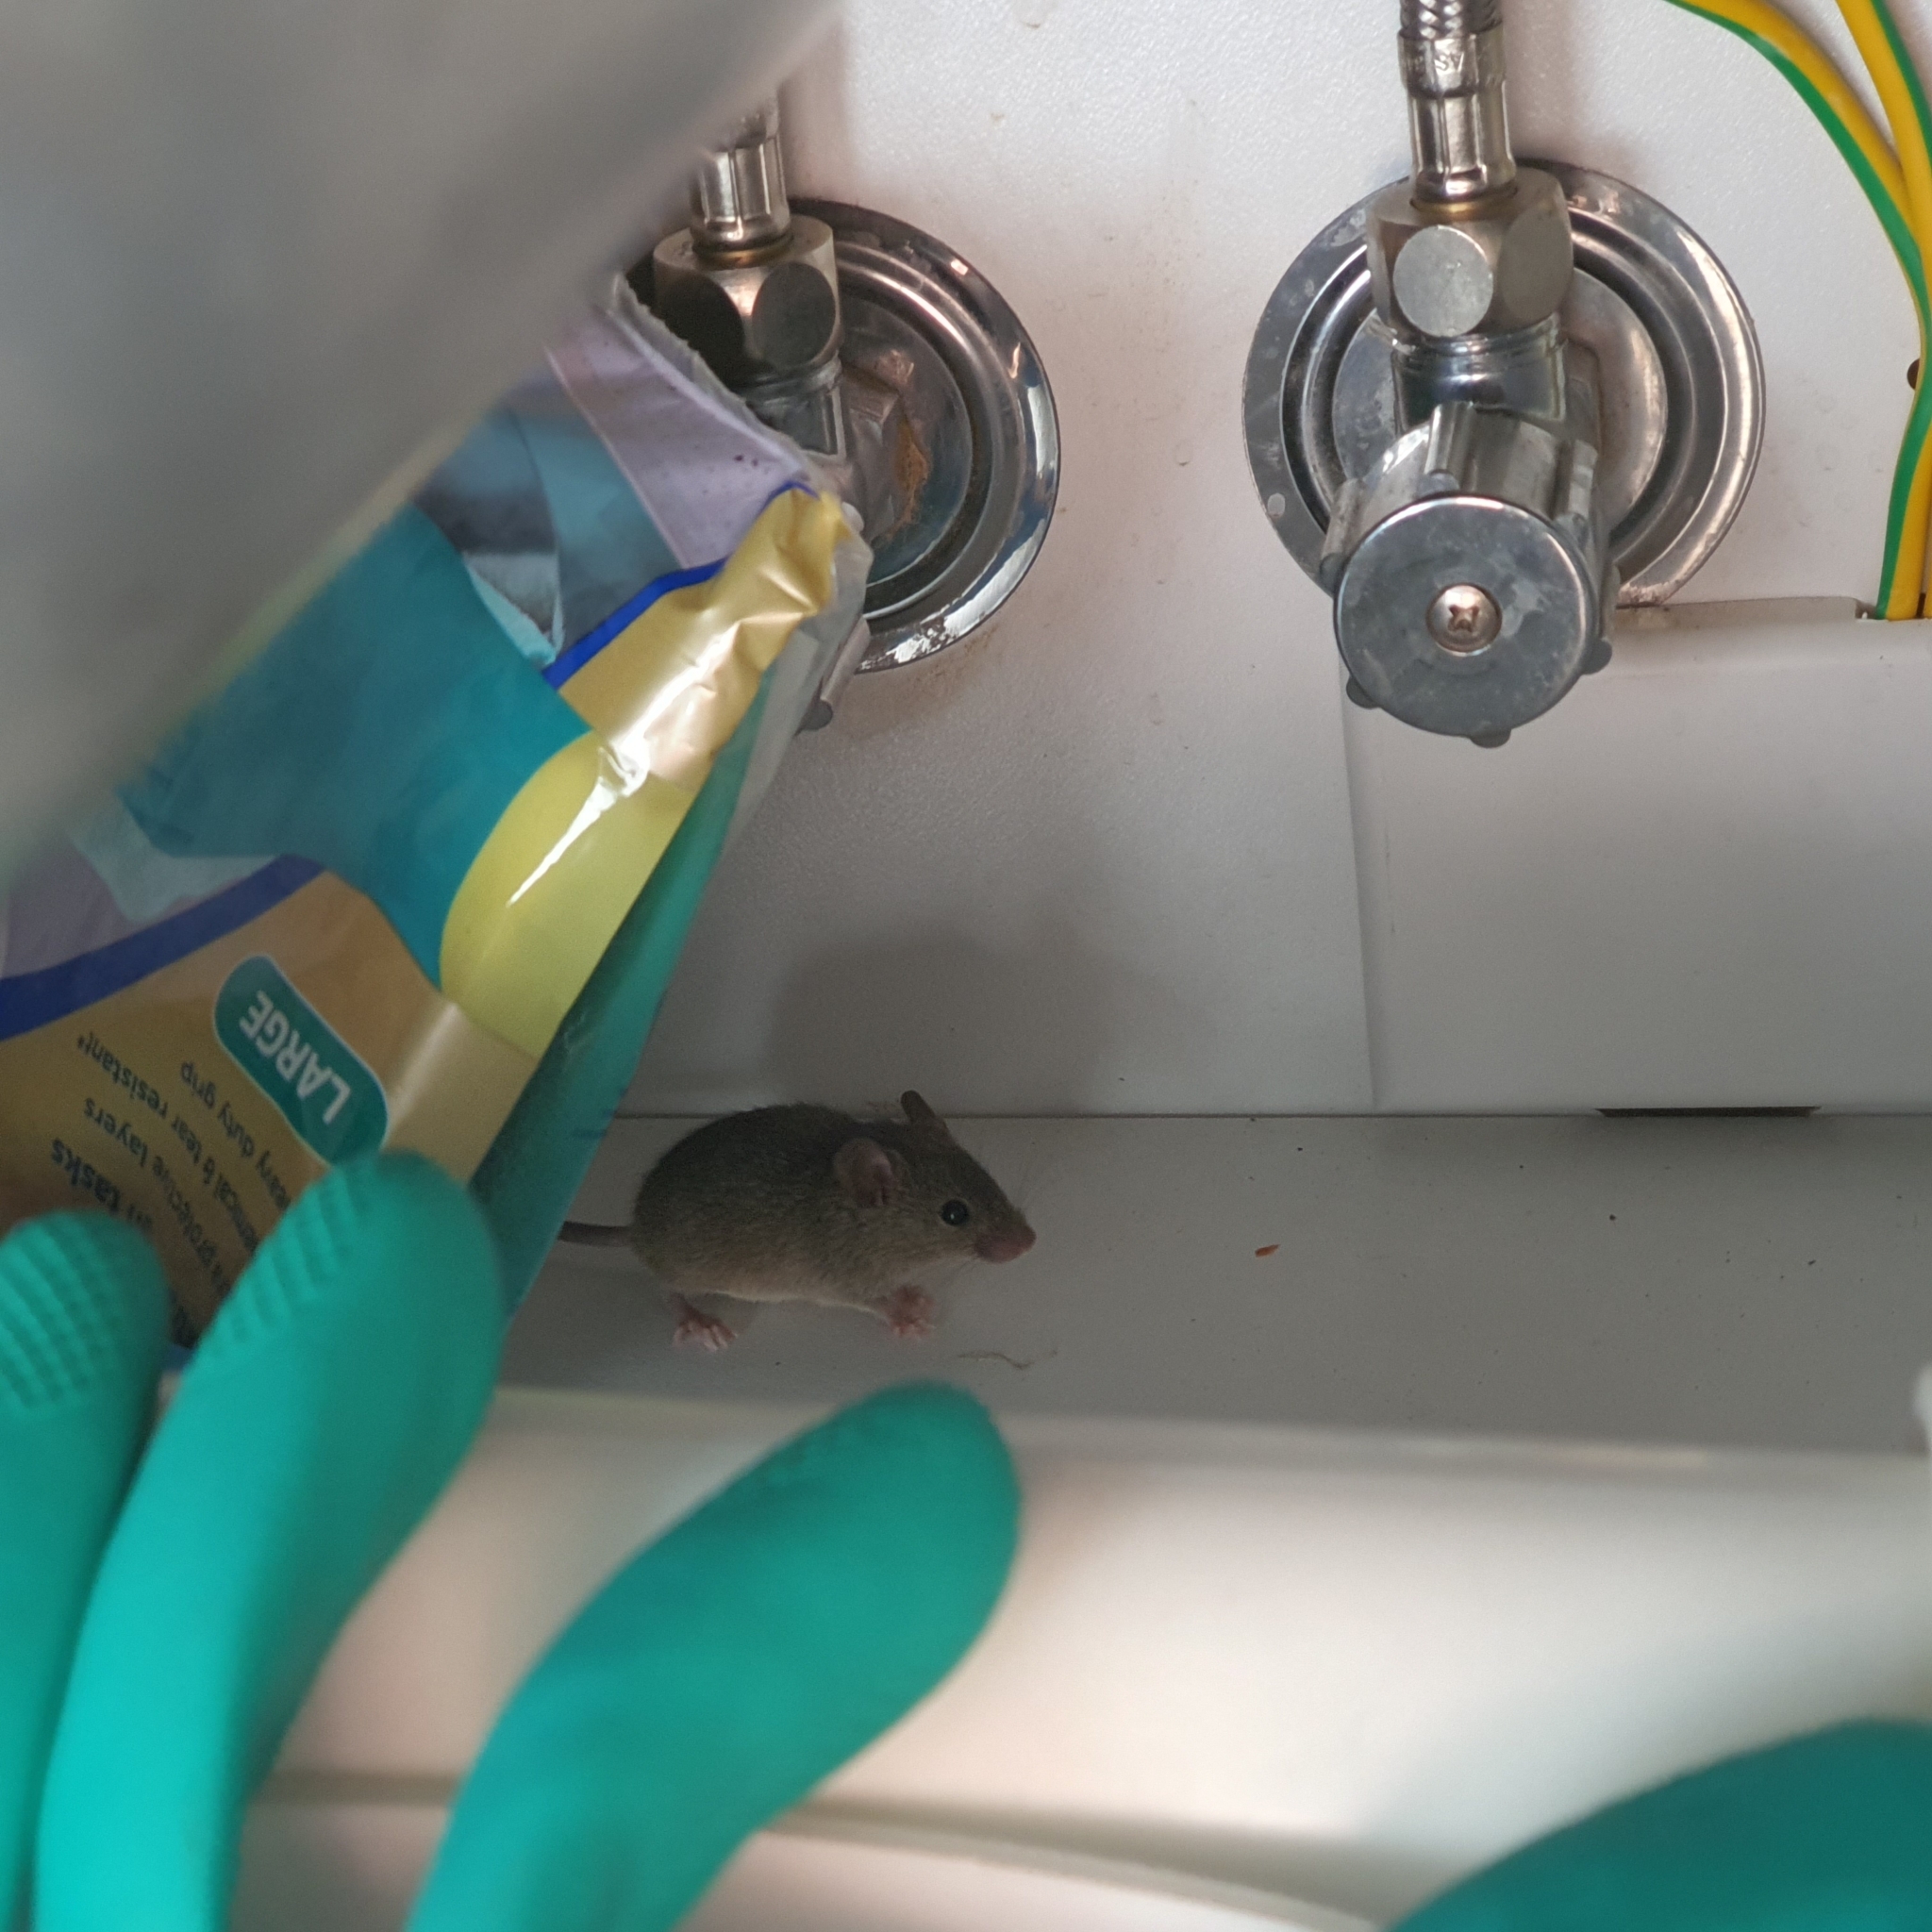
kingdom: Animalia
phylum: Chordata
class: Mammalia
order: Rodentia
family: Muridae
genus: Mus
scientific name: Mus musculus
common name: House mouse
